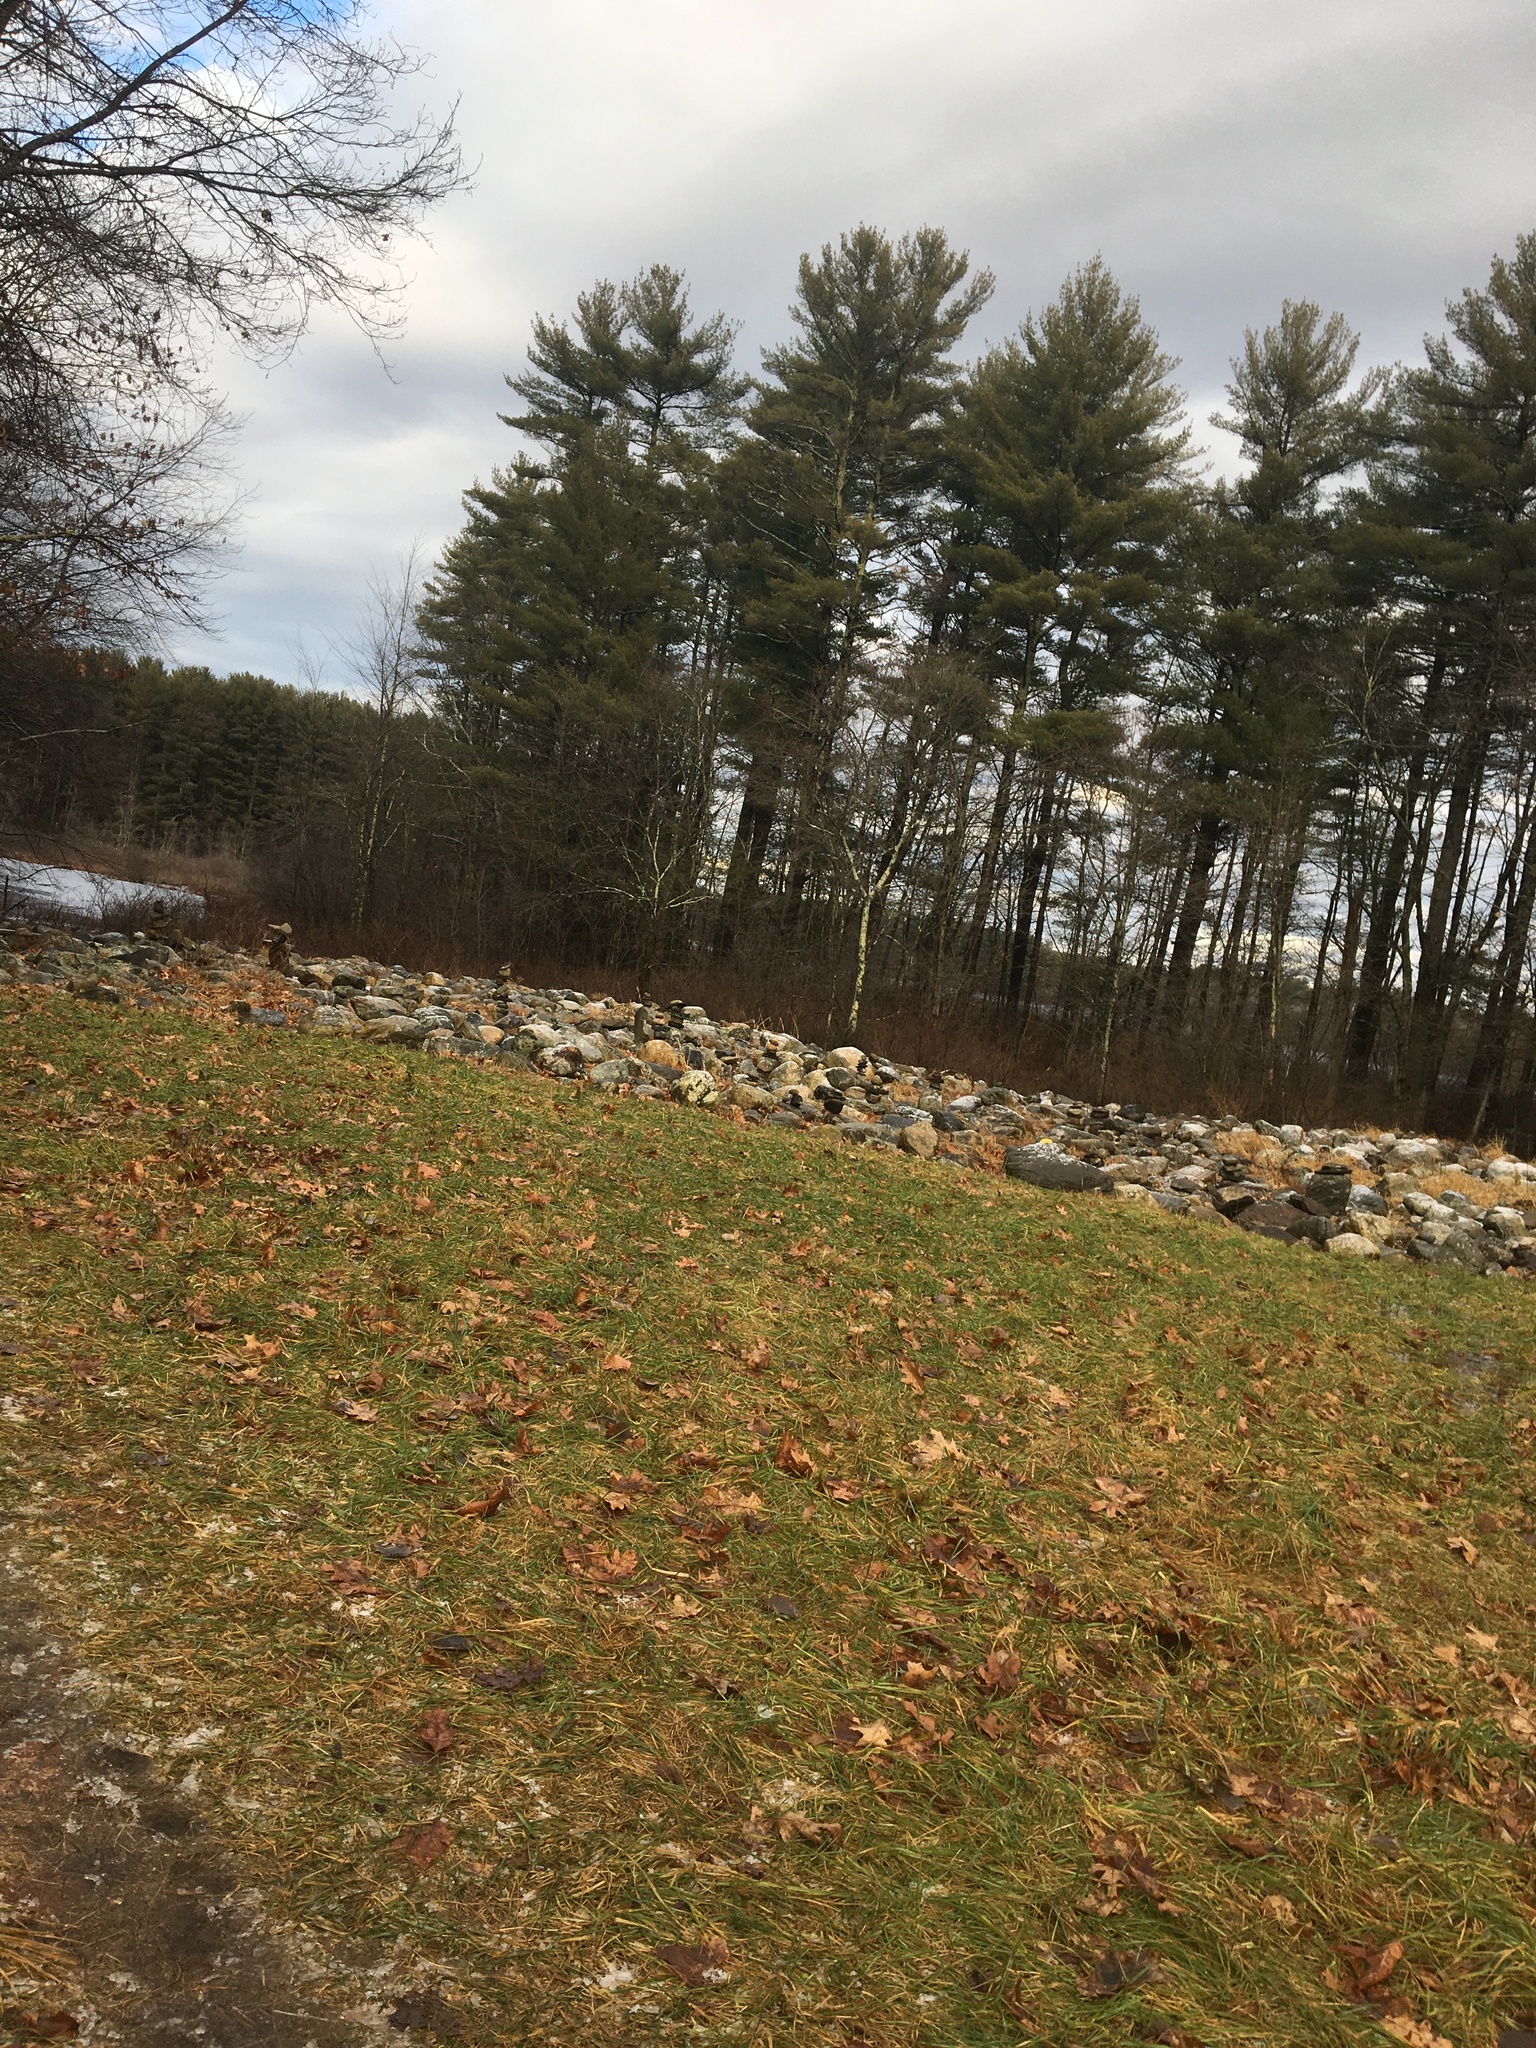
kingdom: Plantae
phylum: Tracheophyta
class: Pinopsida
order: Pinales
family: Pinaceae
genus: Pinus
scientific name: Pinus strobus
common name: Weymouth pine
